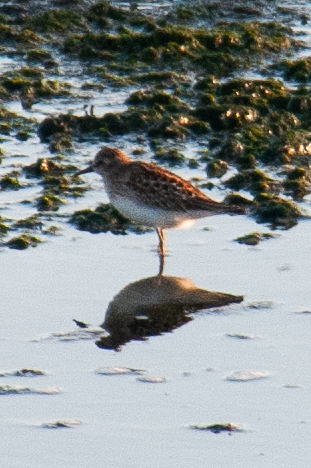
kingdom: Animalia
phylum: Chordata
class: Aves
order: Charadriiformes
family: Scolopacidae
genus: Calidris
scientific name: Calidris minutilla
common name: Least sandpiper
